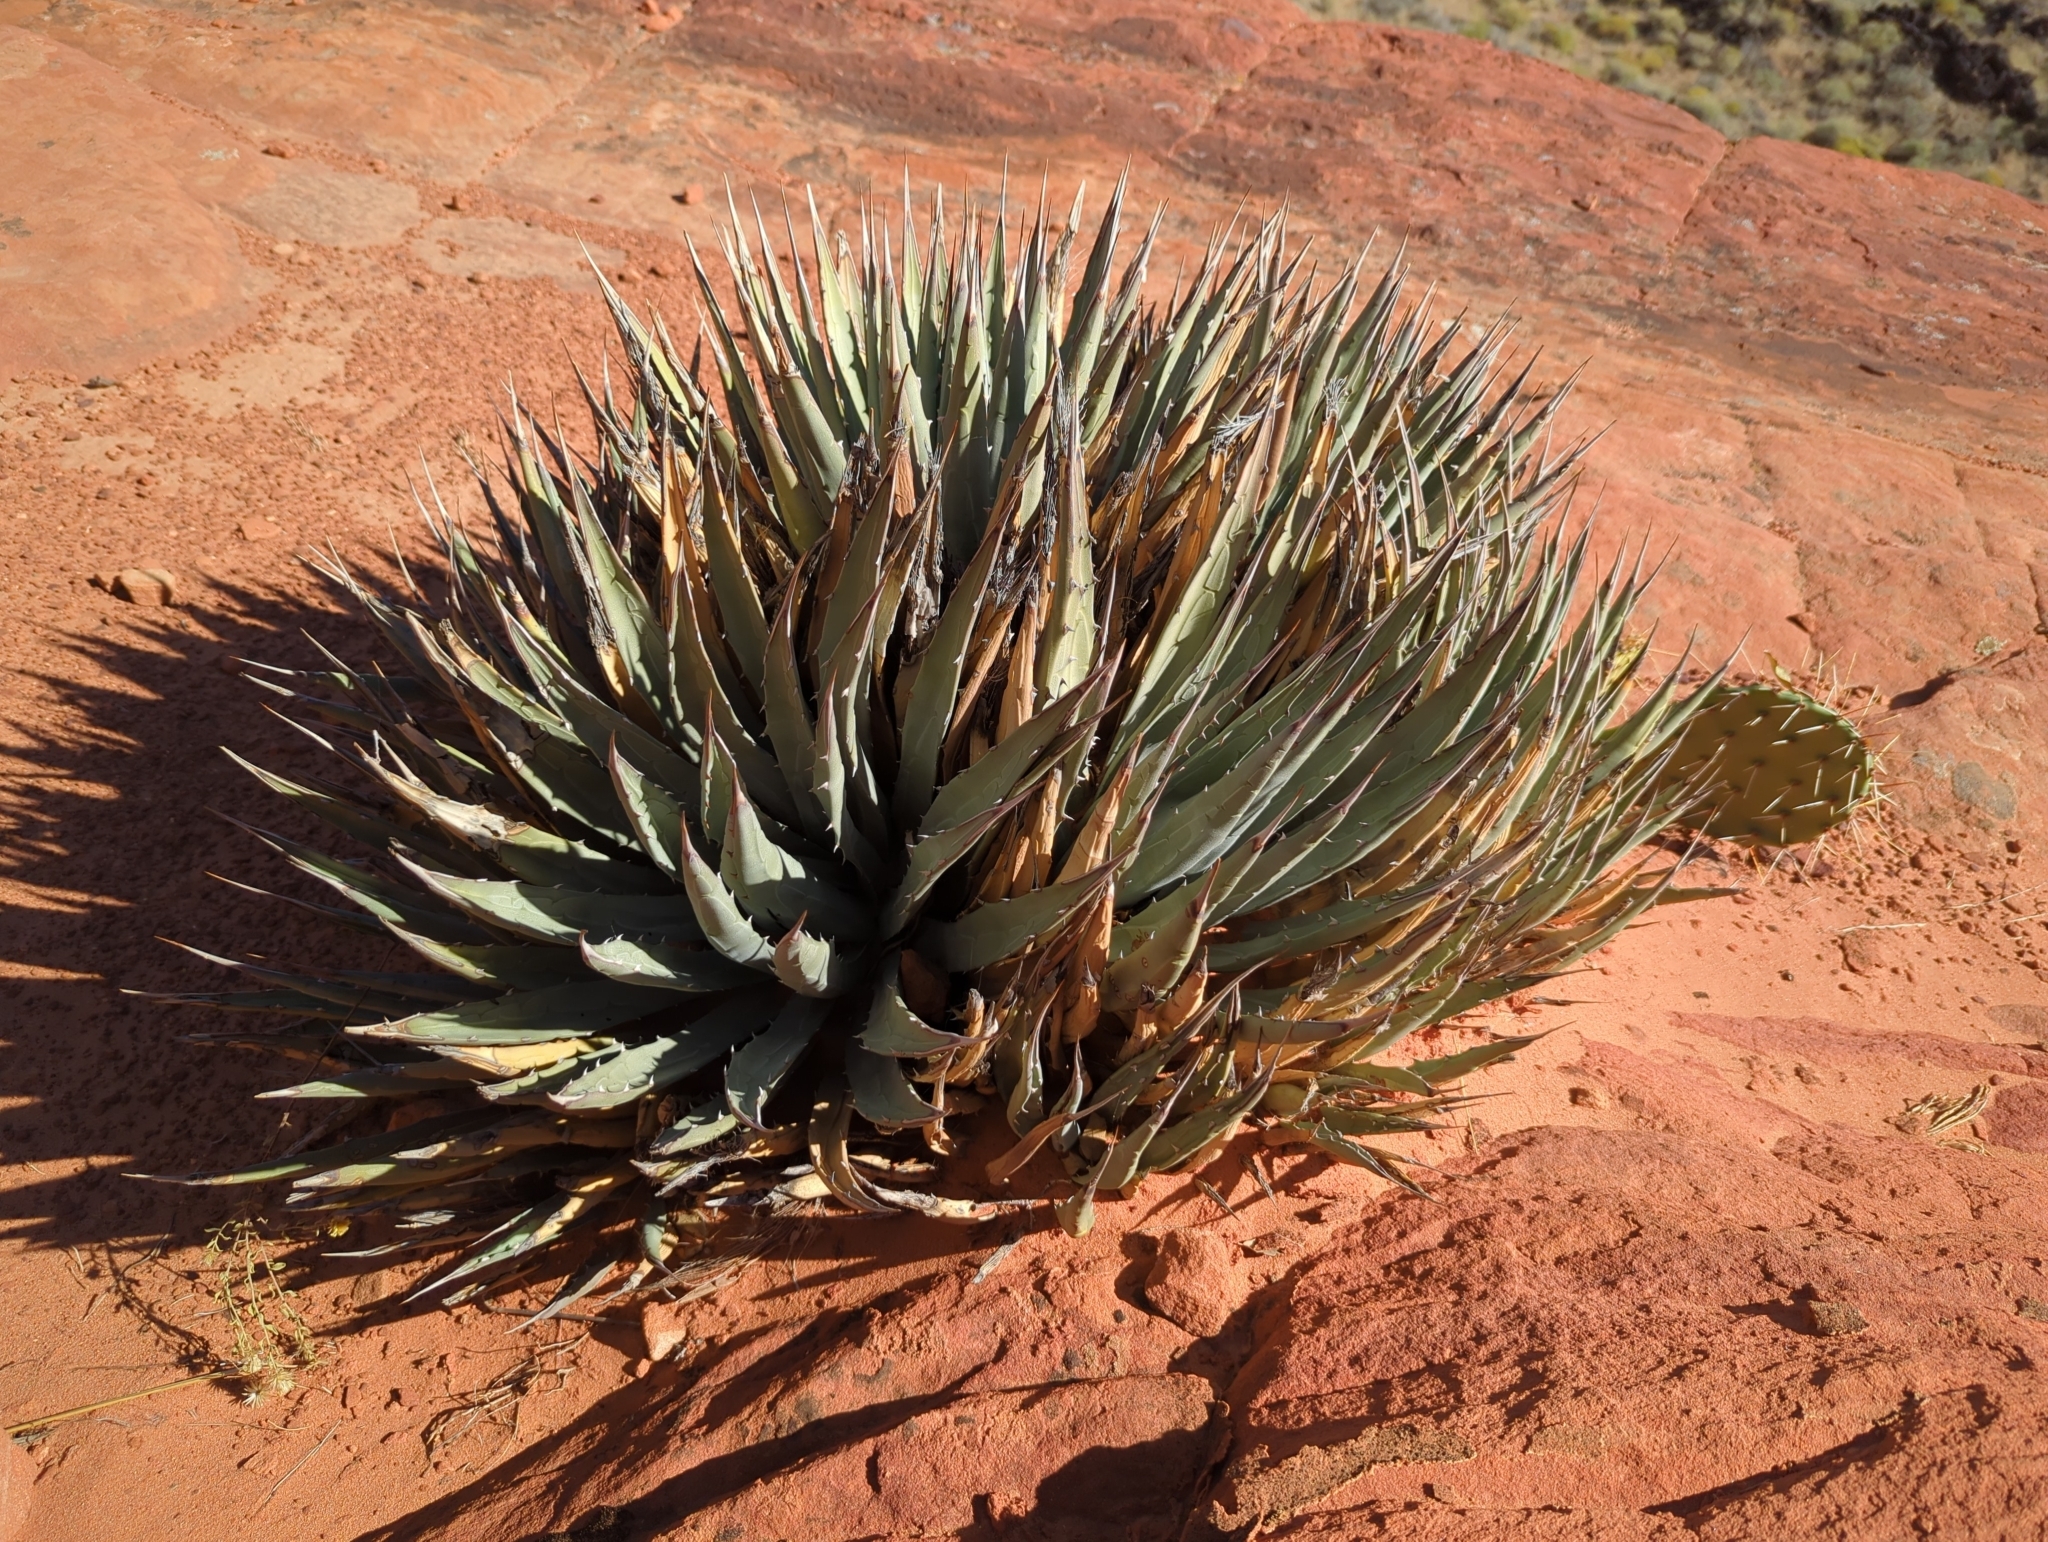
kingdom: Plantae
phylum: Tracheophyta
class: Liliopsida
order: Asparagales
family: Asparagaceae
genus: Agave
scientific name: Agave utahensis
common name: Utah agave
